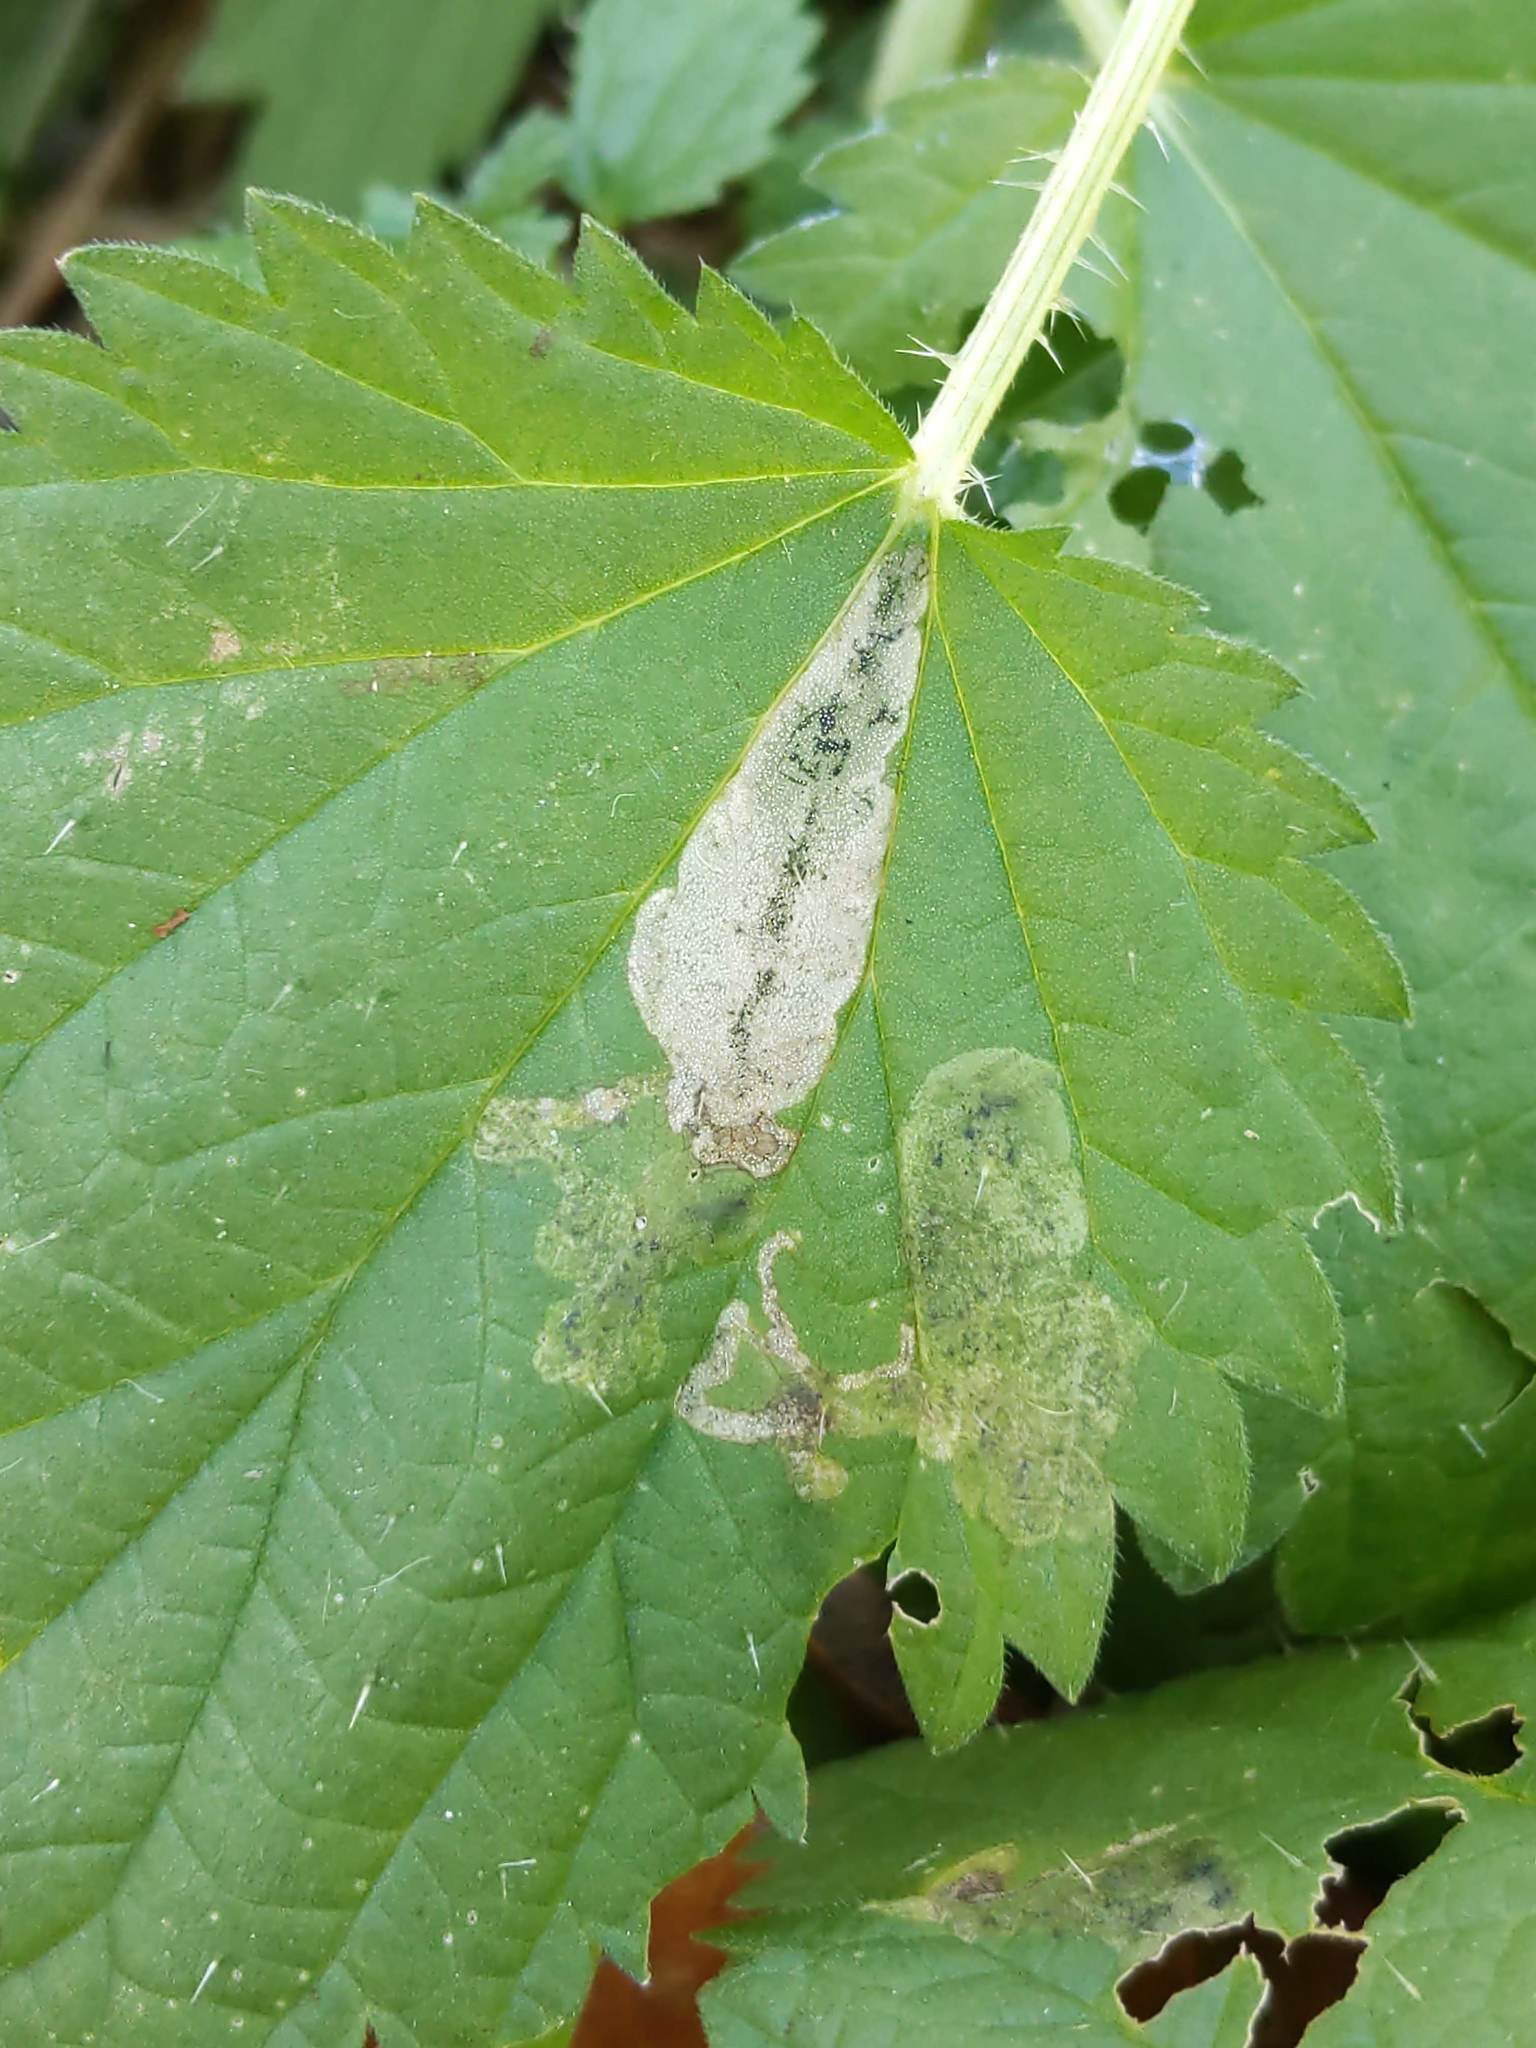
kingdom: Animalia
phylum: Arthropoda
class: Insecta
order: Diptera
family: Agromyzidae
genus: Agromyza
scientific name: Agromyza pseudoreptans
